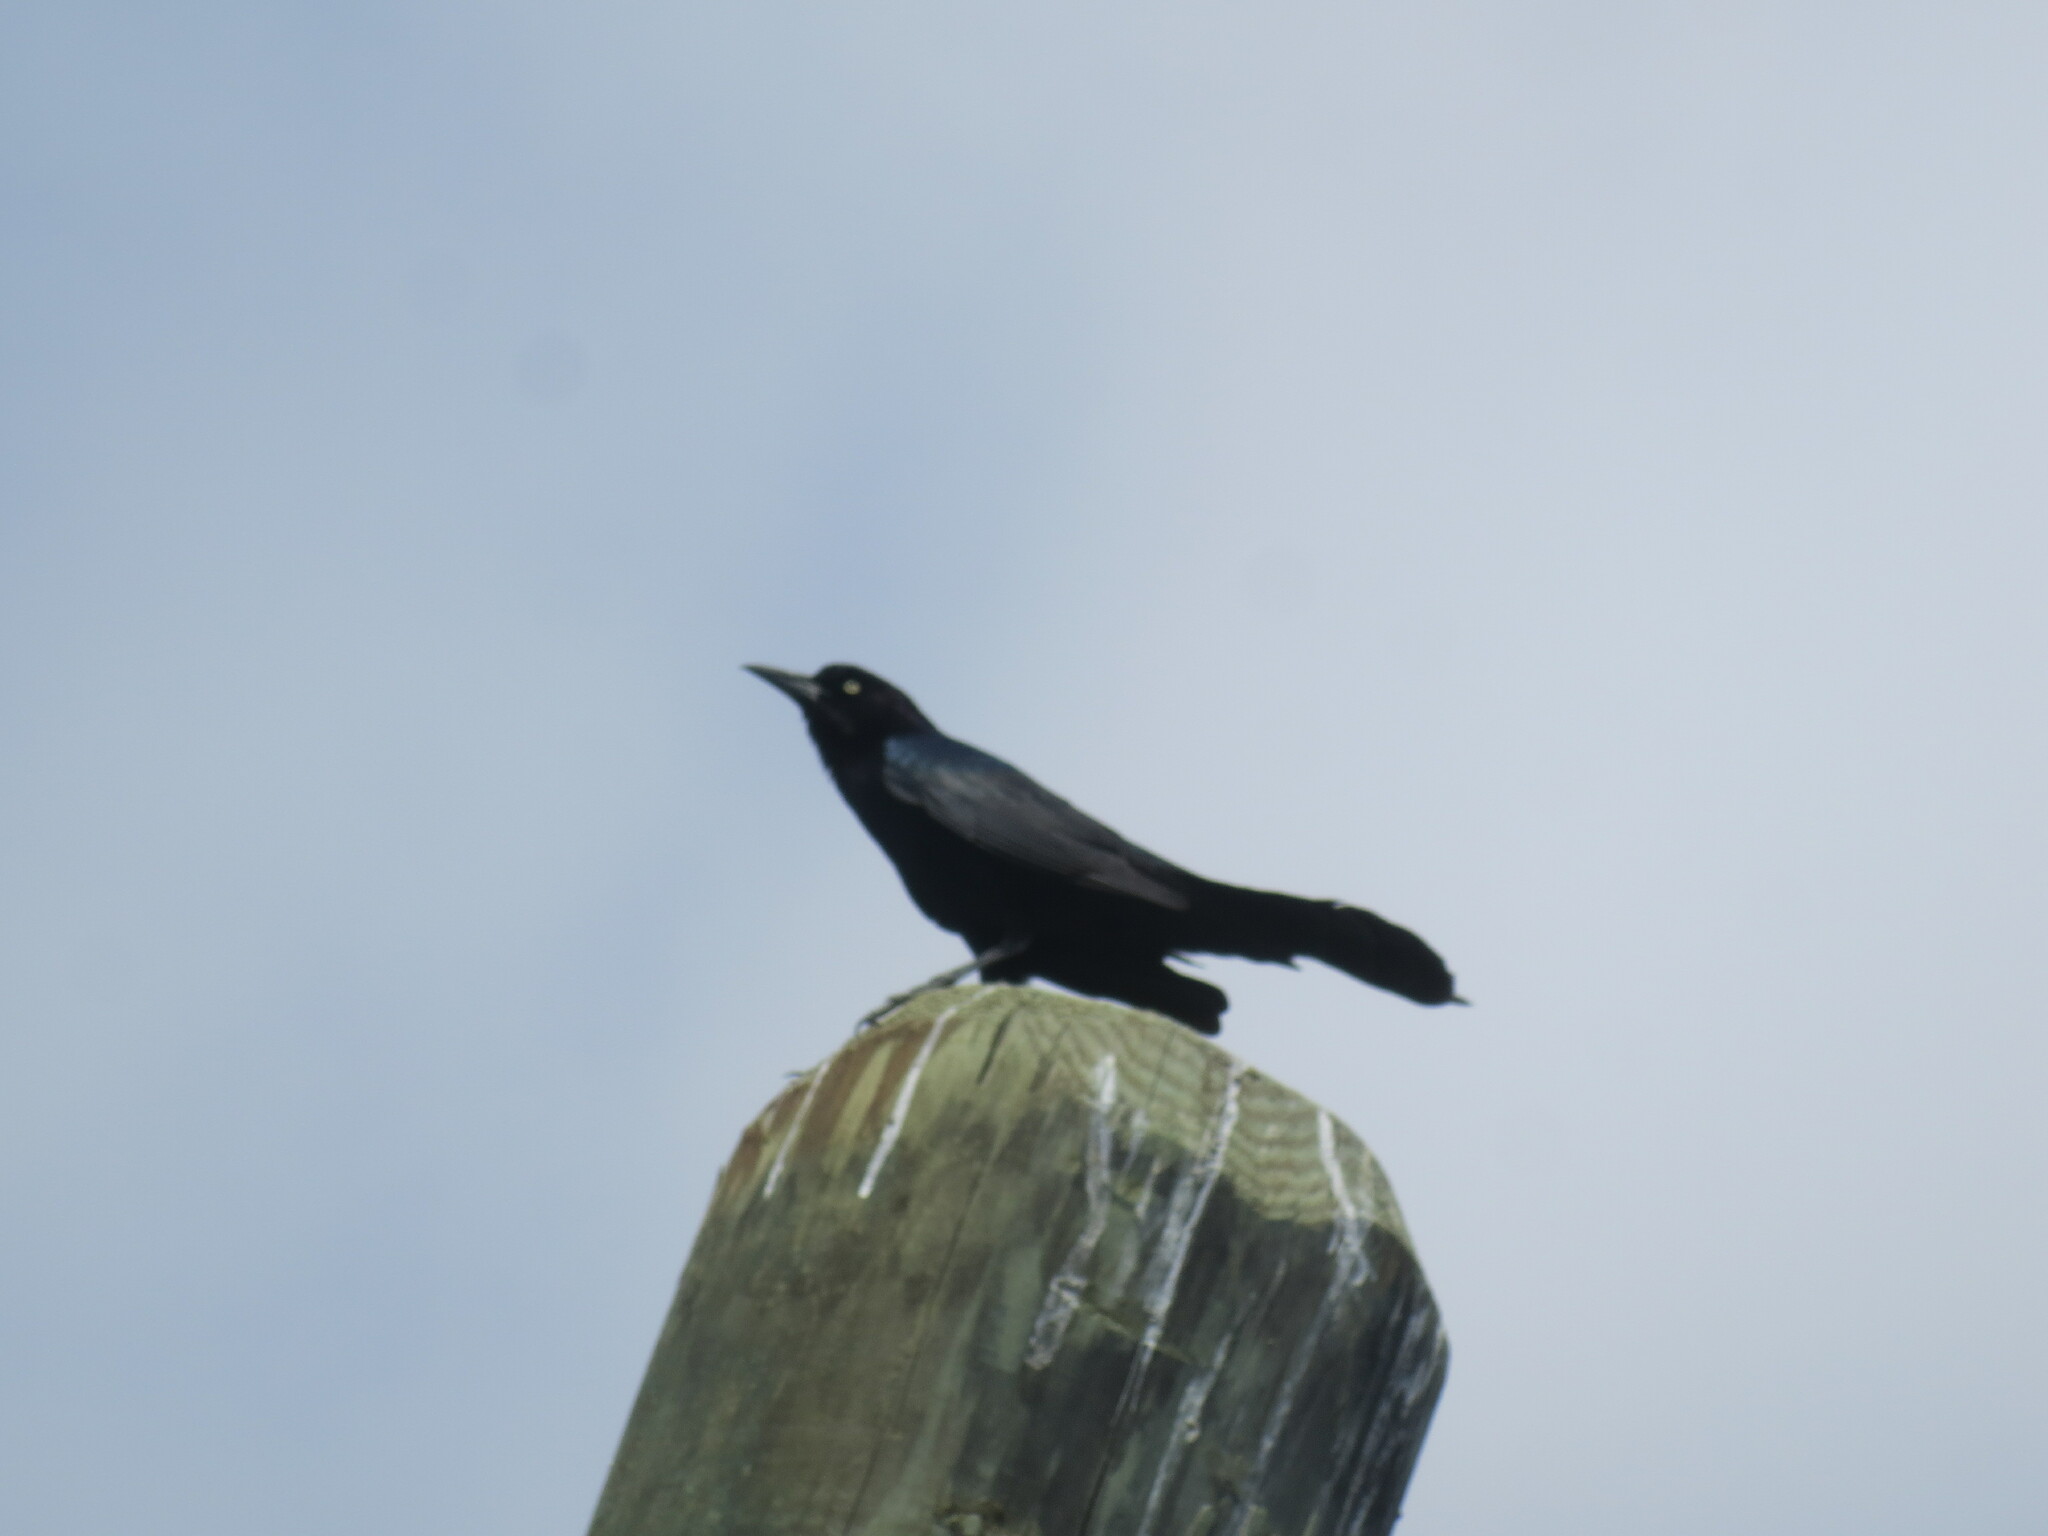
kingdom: Animalia
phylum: Chordata
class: Aves
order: Passeriformes
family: Icteridae
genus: Quiscalus
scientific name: Quiscalus major
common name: Boat-tailed grackle
